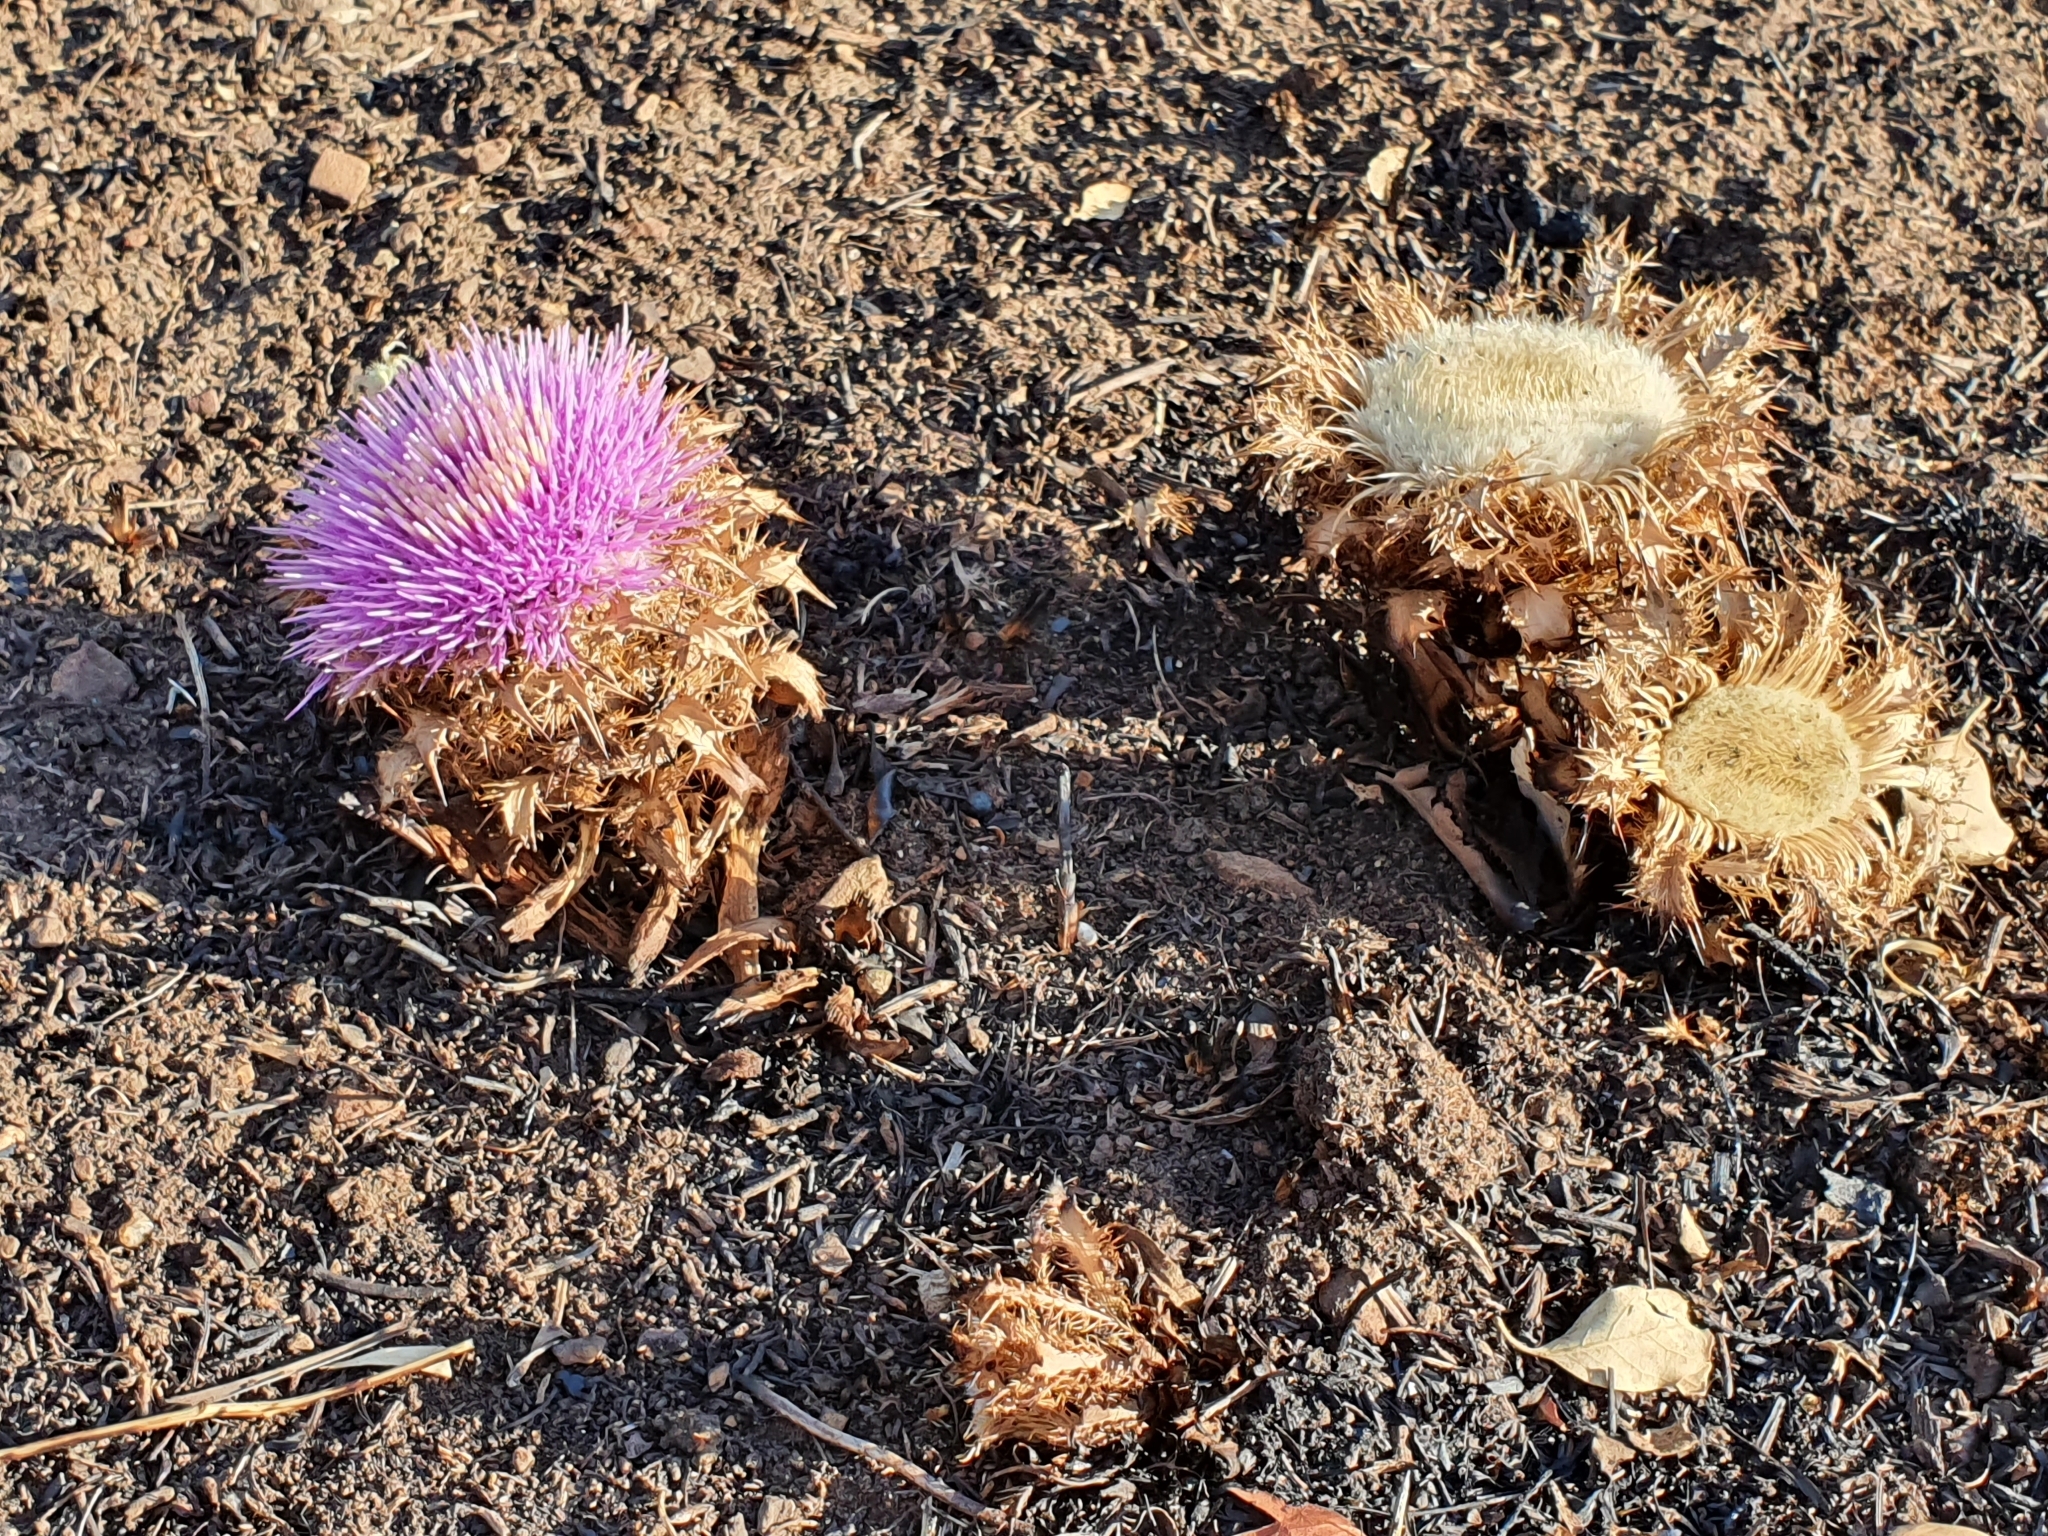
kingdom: Plantae
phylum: Tracheophyta
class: Magnoliopsida
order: Asterales
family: Asteraceae
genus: Chamaeleon
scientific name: Chamaeleon gummifer
